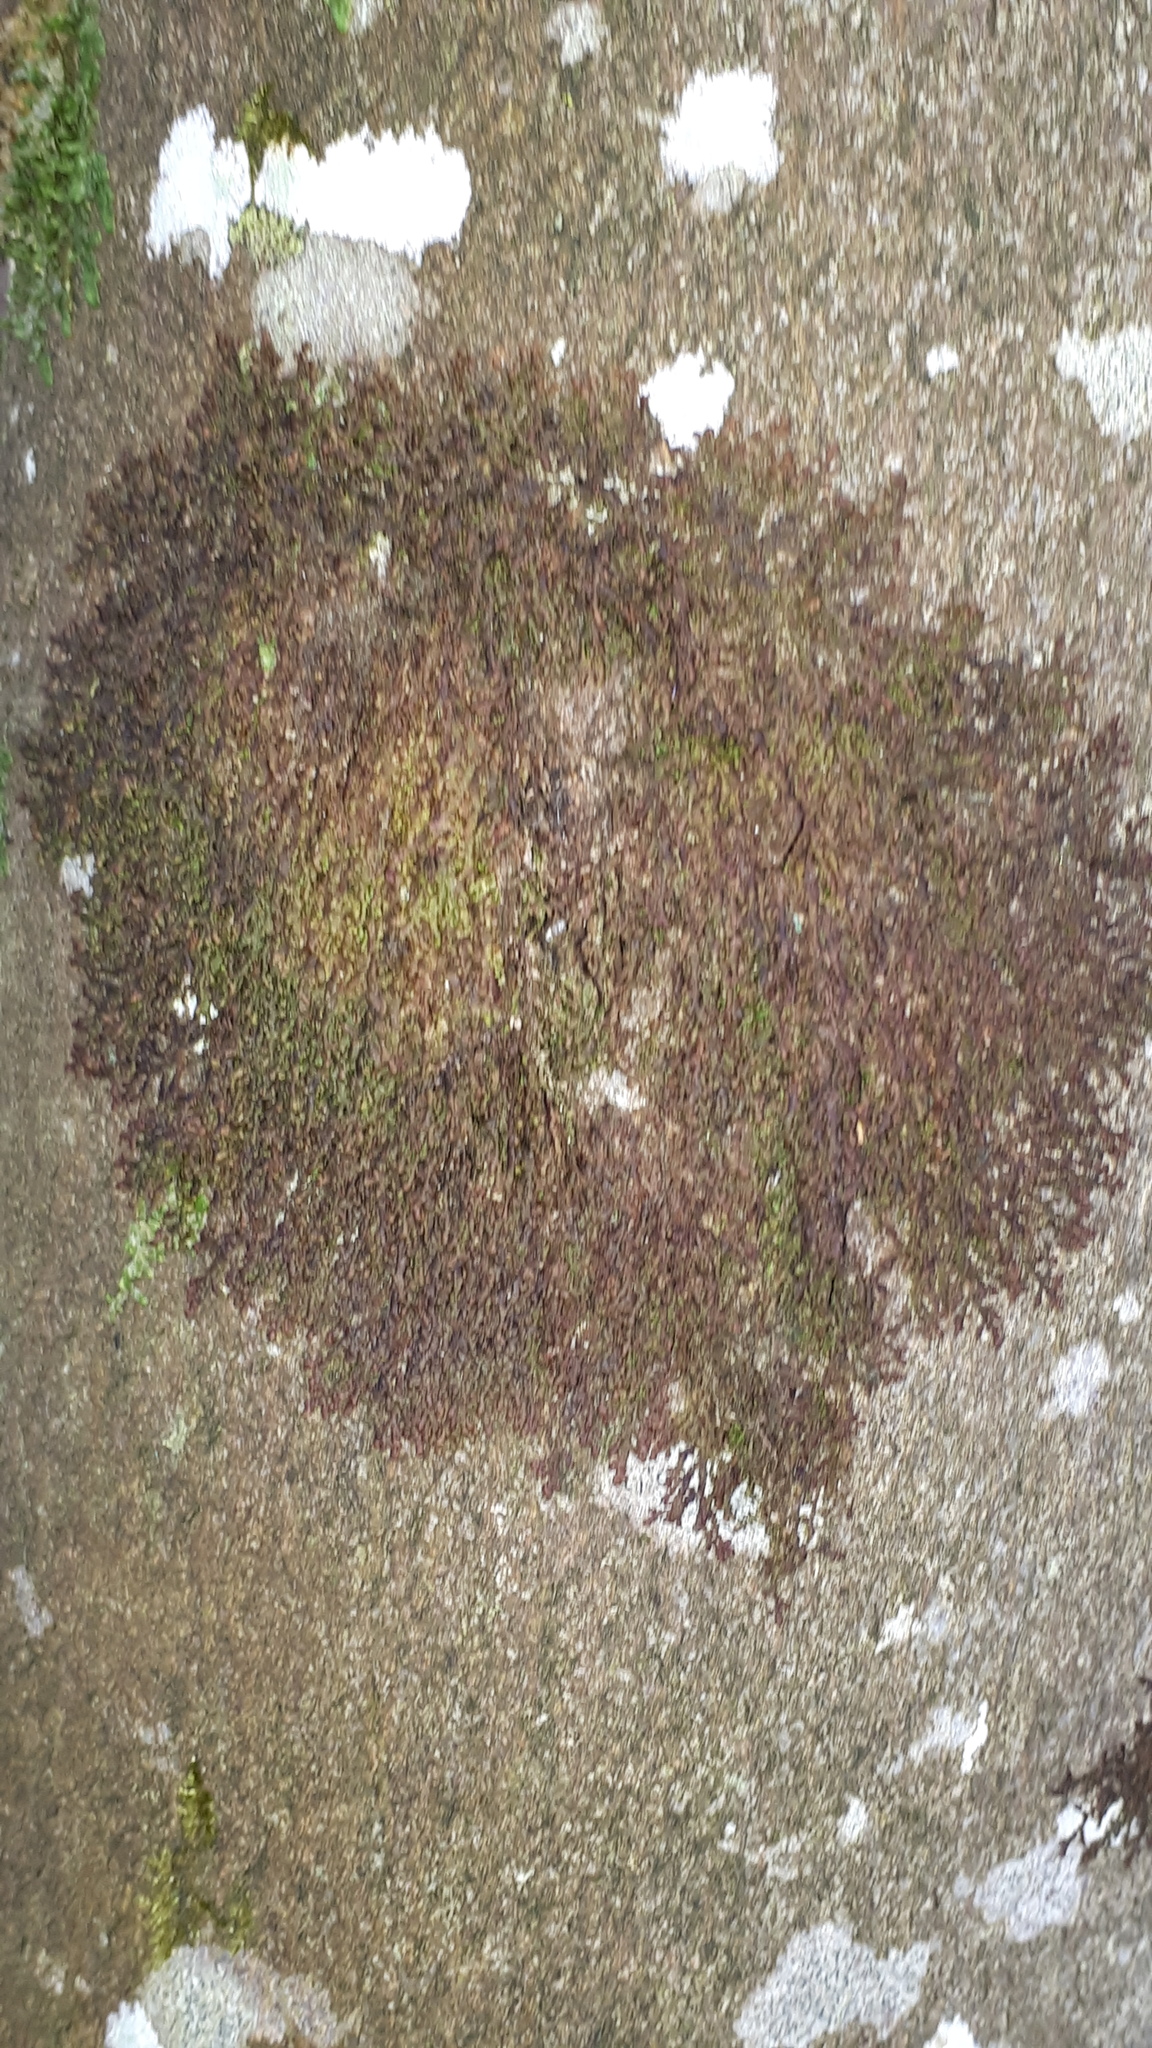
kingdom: Plantae
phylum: Marchantiophyta
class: Jungermanniopsida
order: Porellales
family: Frullaniaceae
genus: Frullania
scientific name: Frullania dilatata
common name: Dilated scalewort
